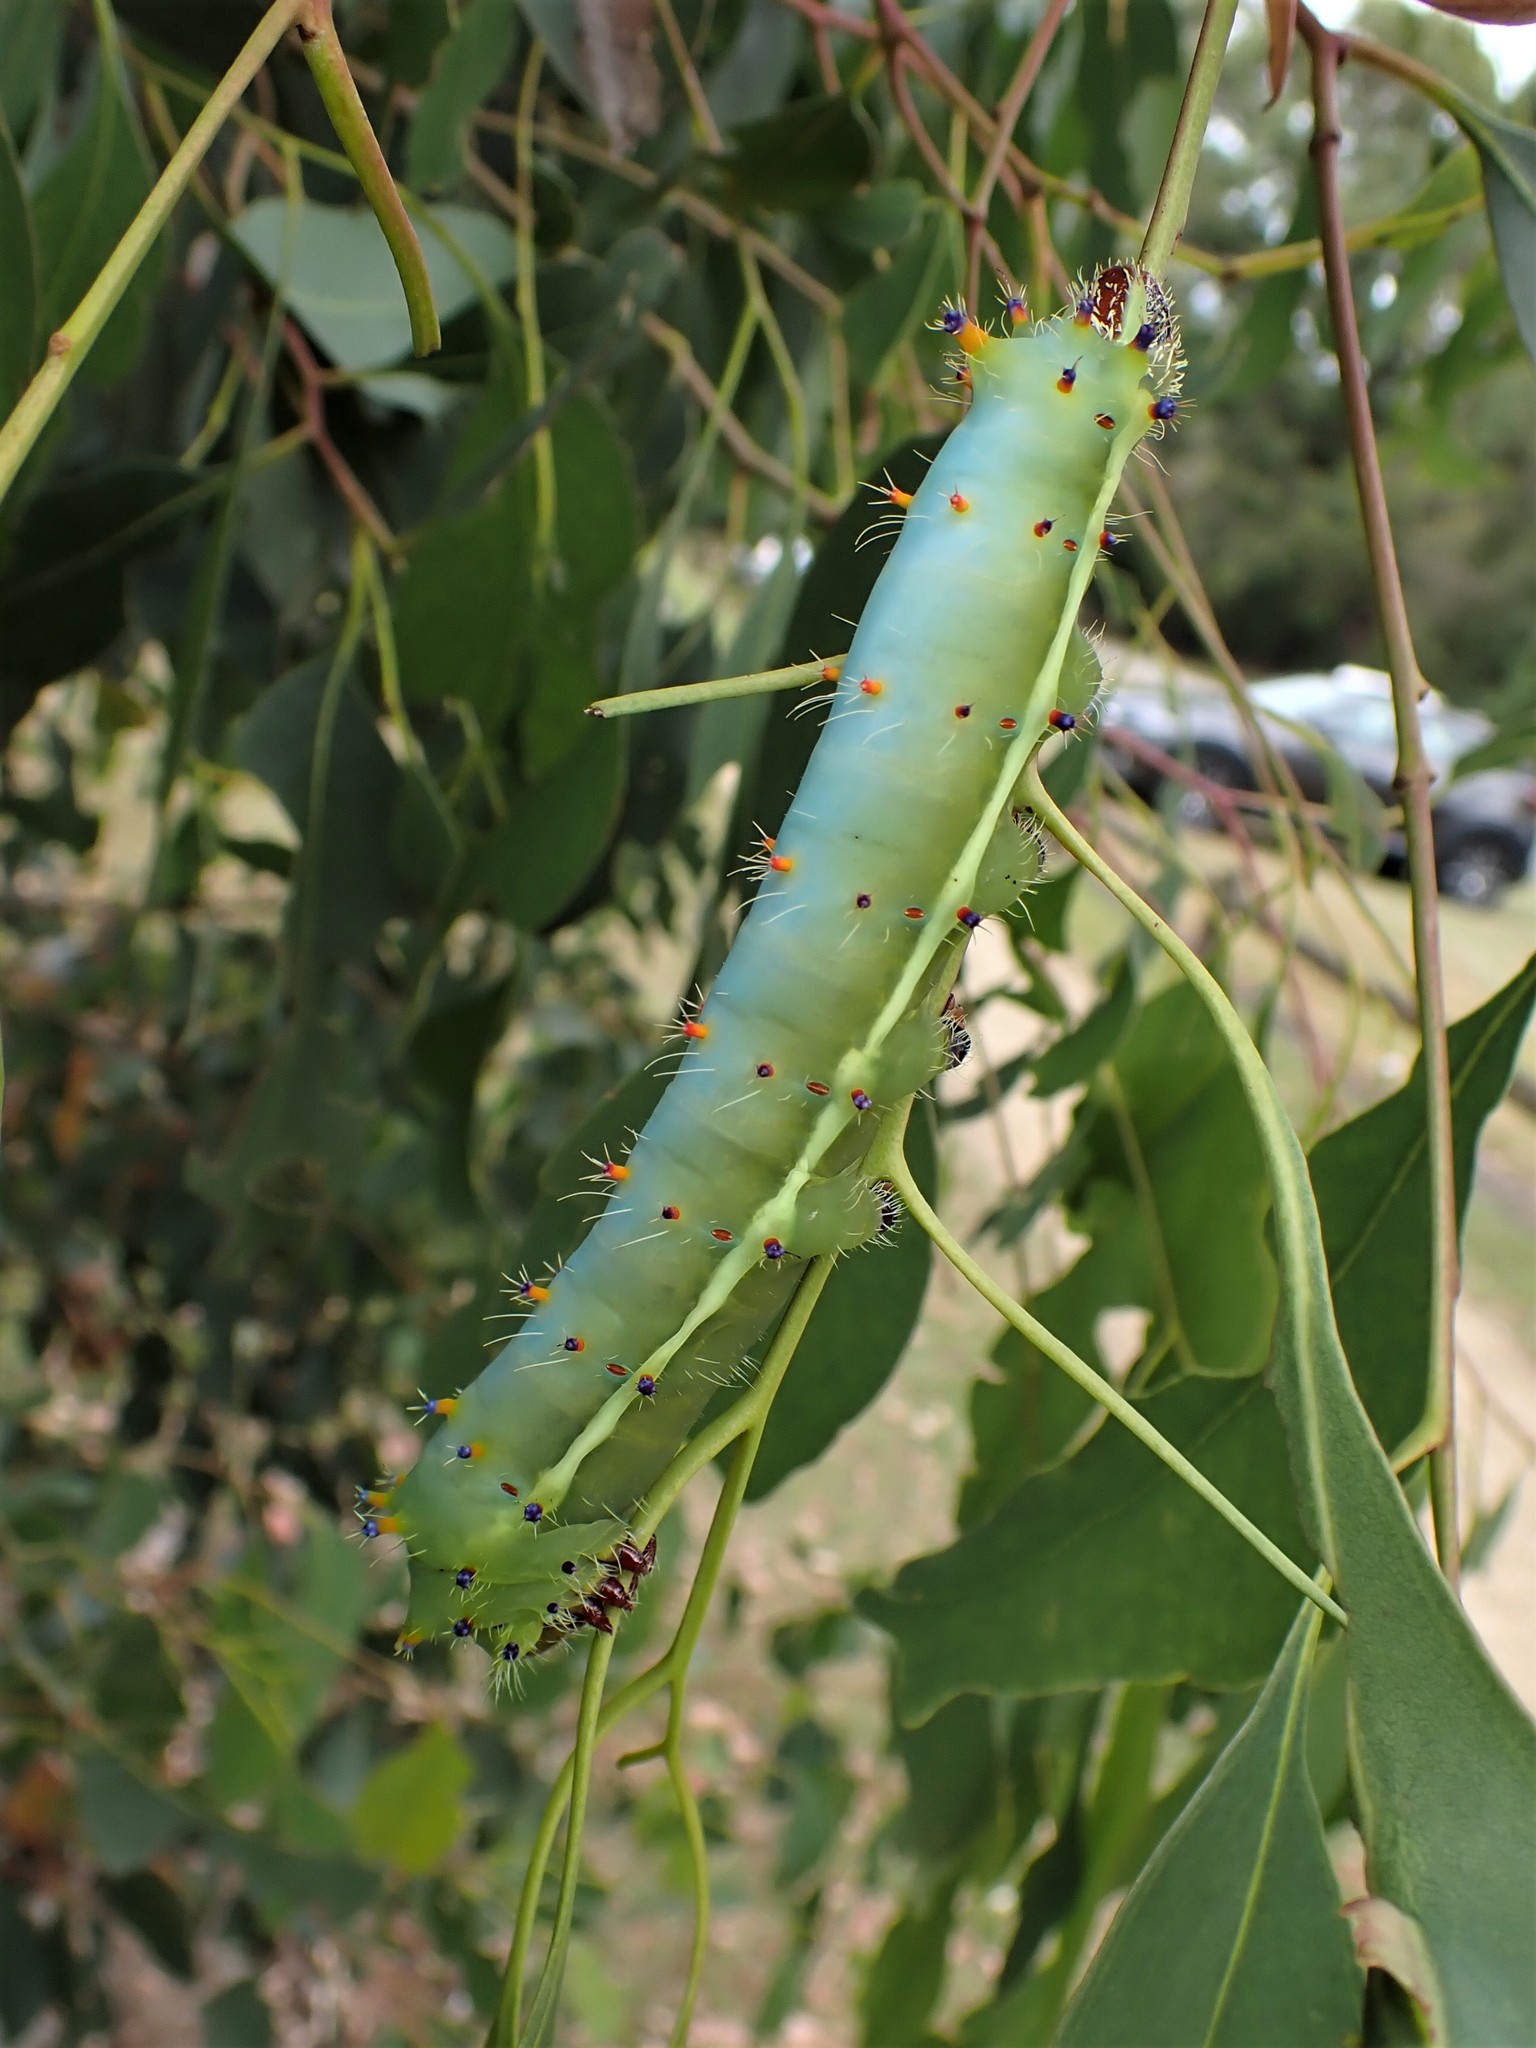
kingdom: Animalia
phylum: Arthropoda
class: Insecta
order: Lepidoptera
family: Saturniidae
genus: Opodiphthera
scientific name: Opodiphthera
